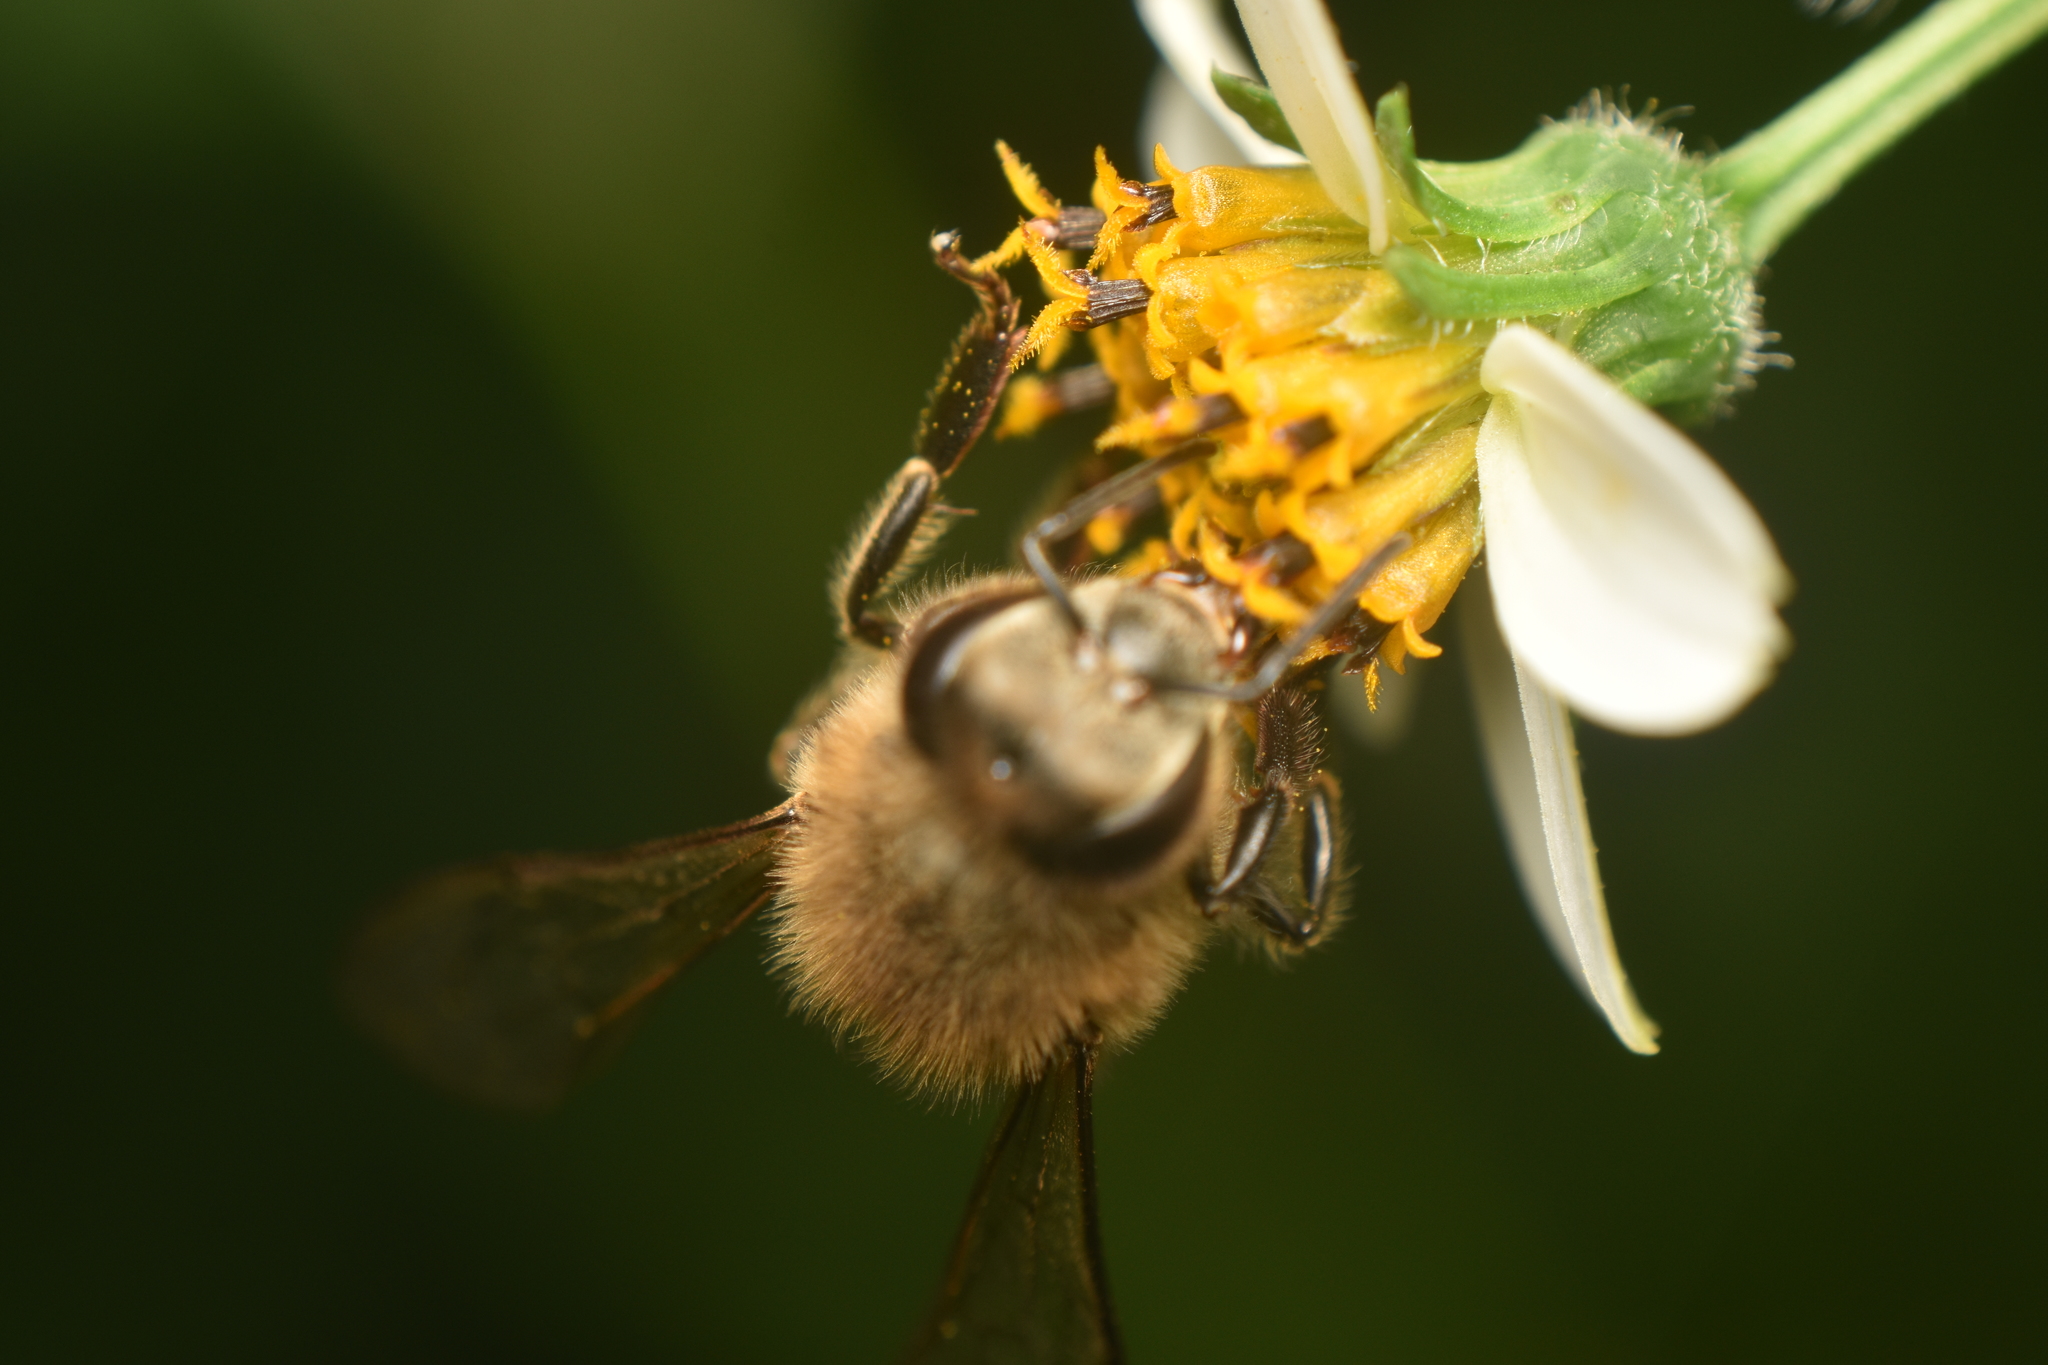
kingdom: Animalia
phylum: Arthropoda
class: Insecta
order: Hymenoptera
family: Apidae
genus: Apis
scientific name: Apis mellifera
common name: Honey bee
